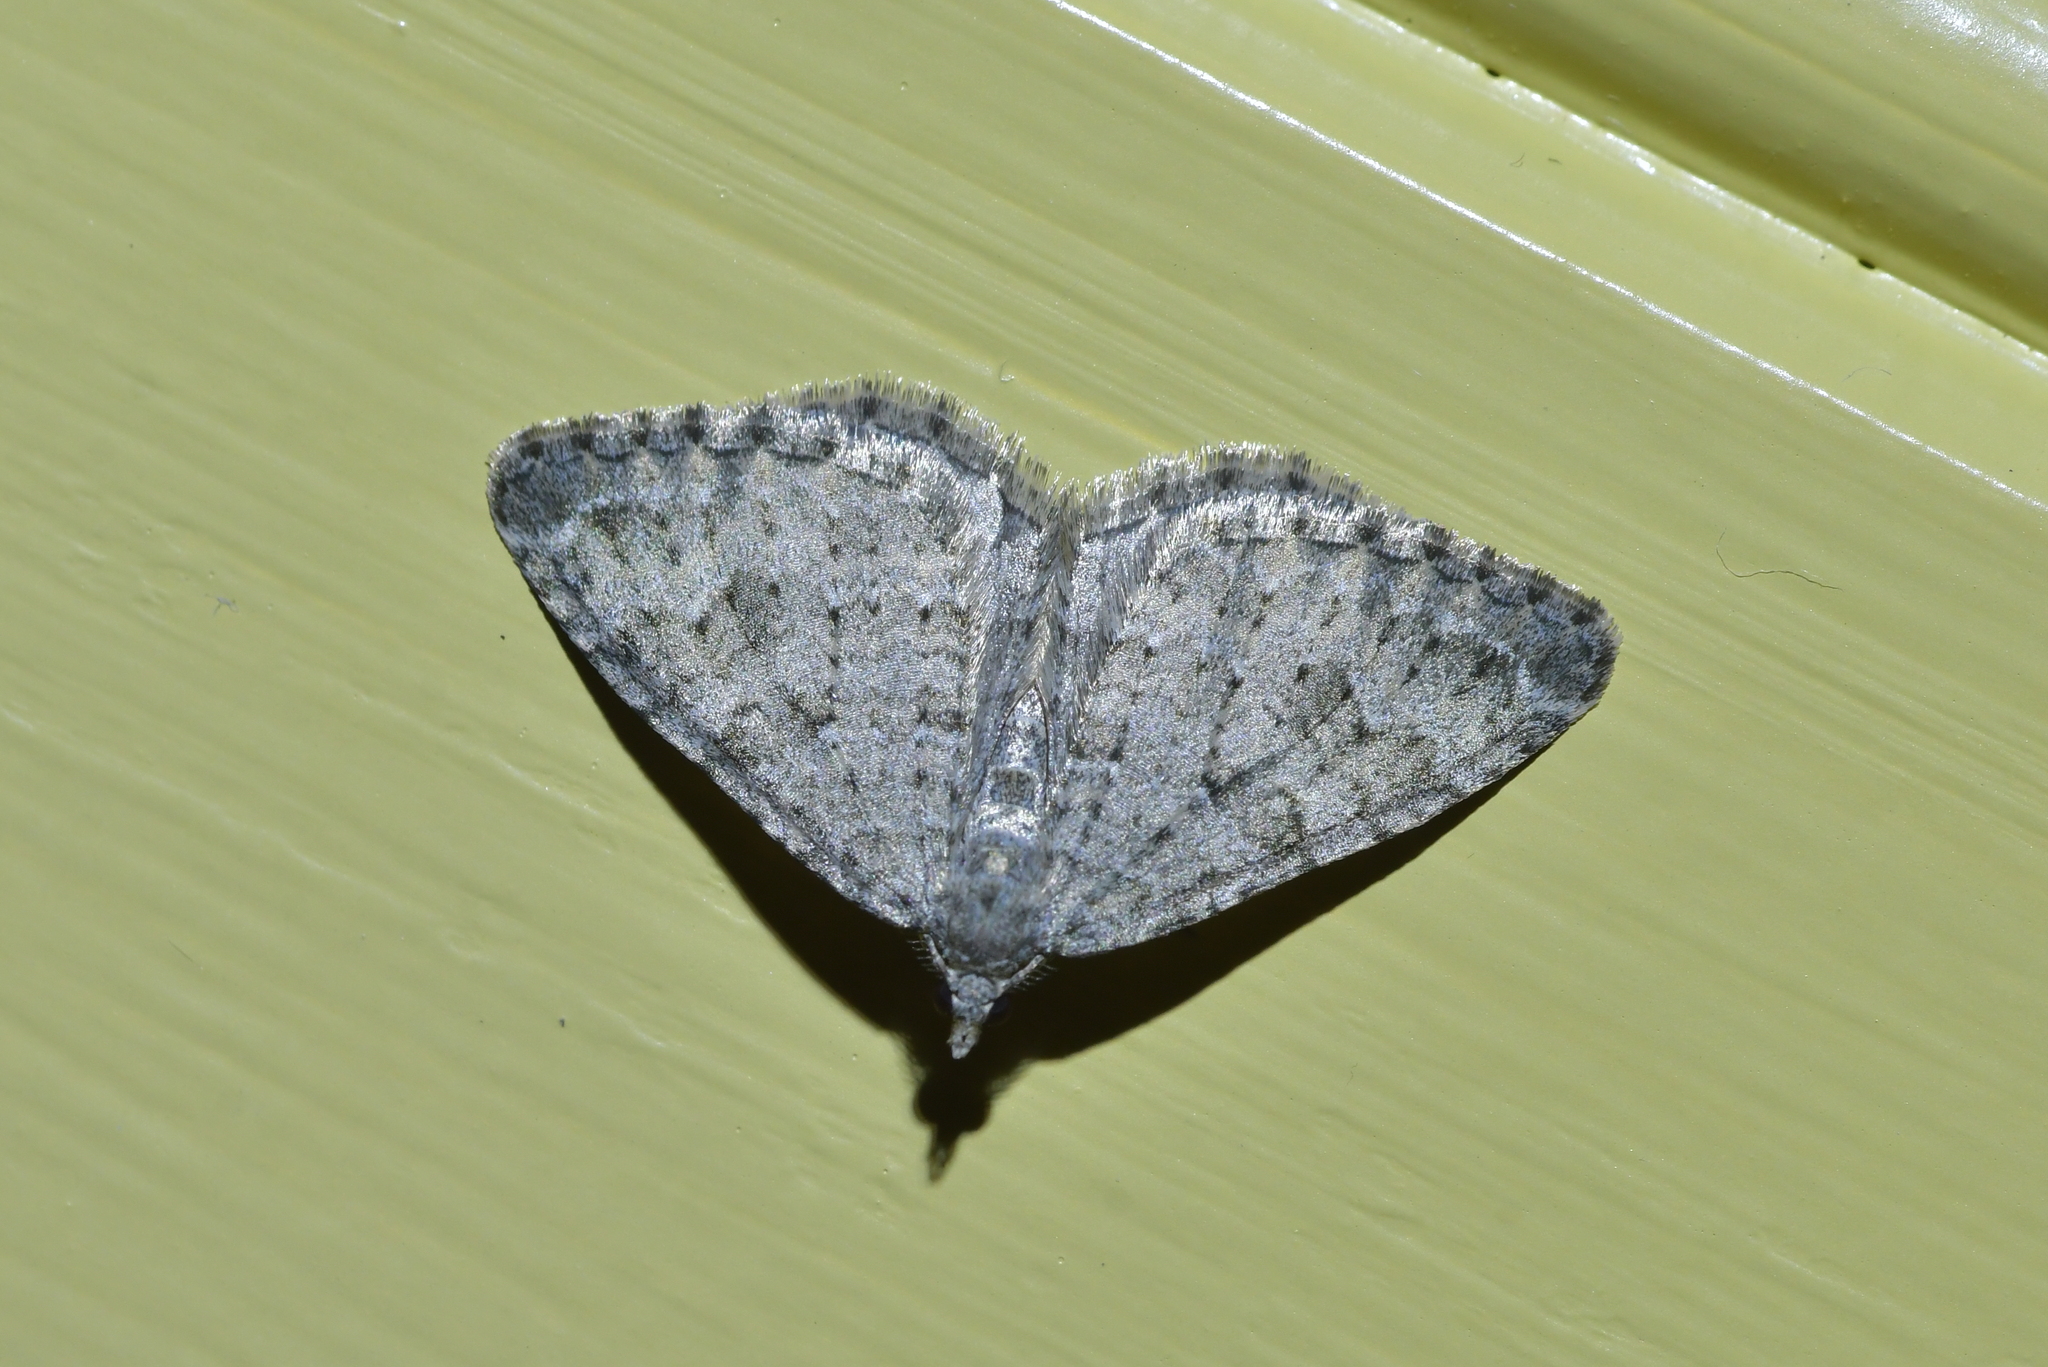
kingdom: Animalia
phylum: Arthropoda
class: Insecta
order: Lepidoptera
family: Geometridae
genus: Helastia
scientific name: Helastia corcularia
